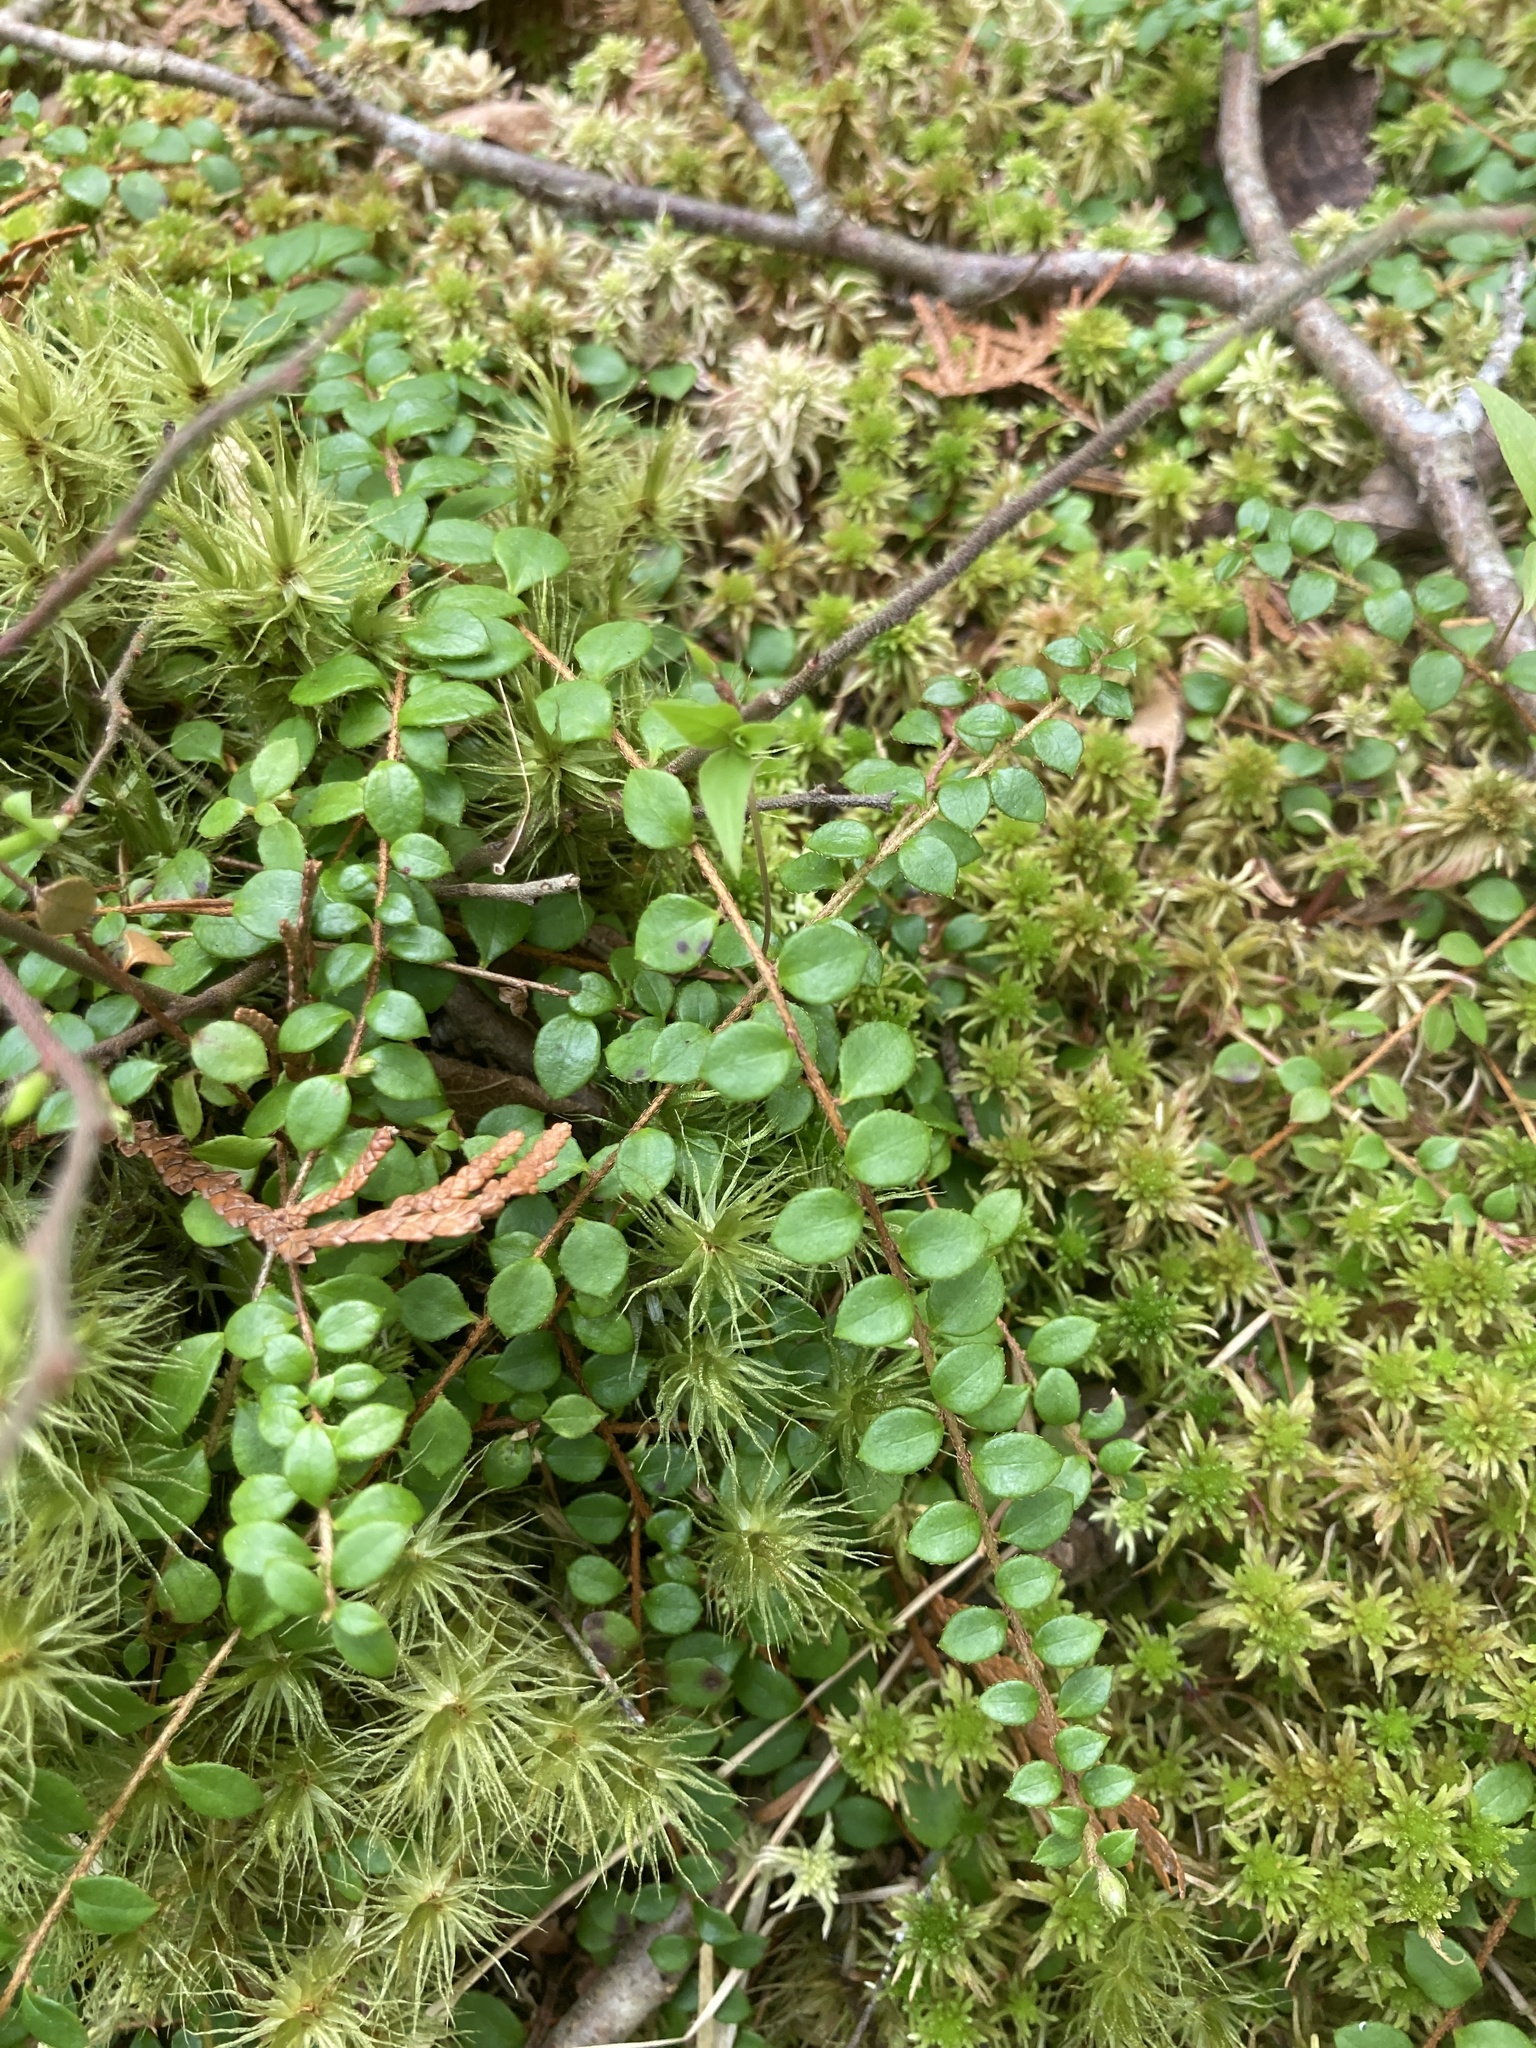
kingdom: Plantae
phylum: Tracheophyta
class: Magnoliopsida
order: Ericales
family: Ericaceae
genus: Gaultheria
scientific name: Gaultheria hispidula
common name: Cancer wintergreen
